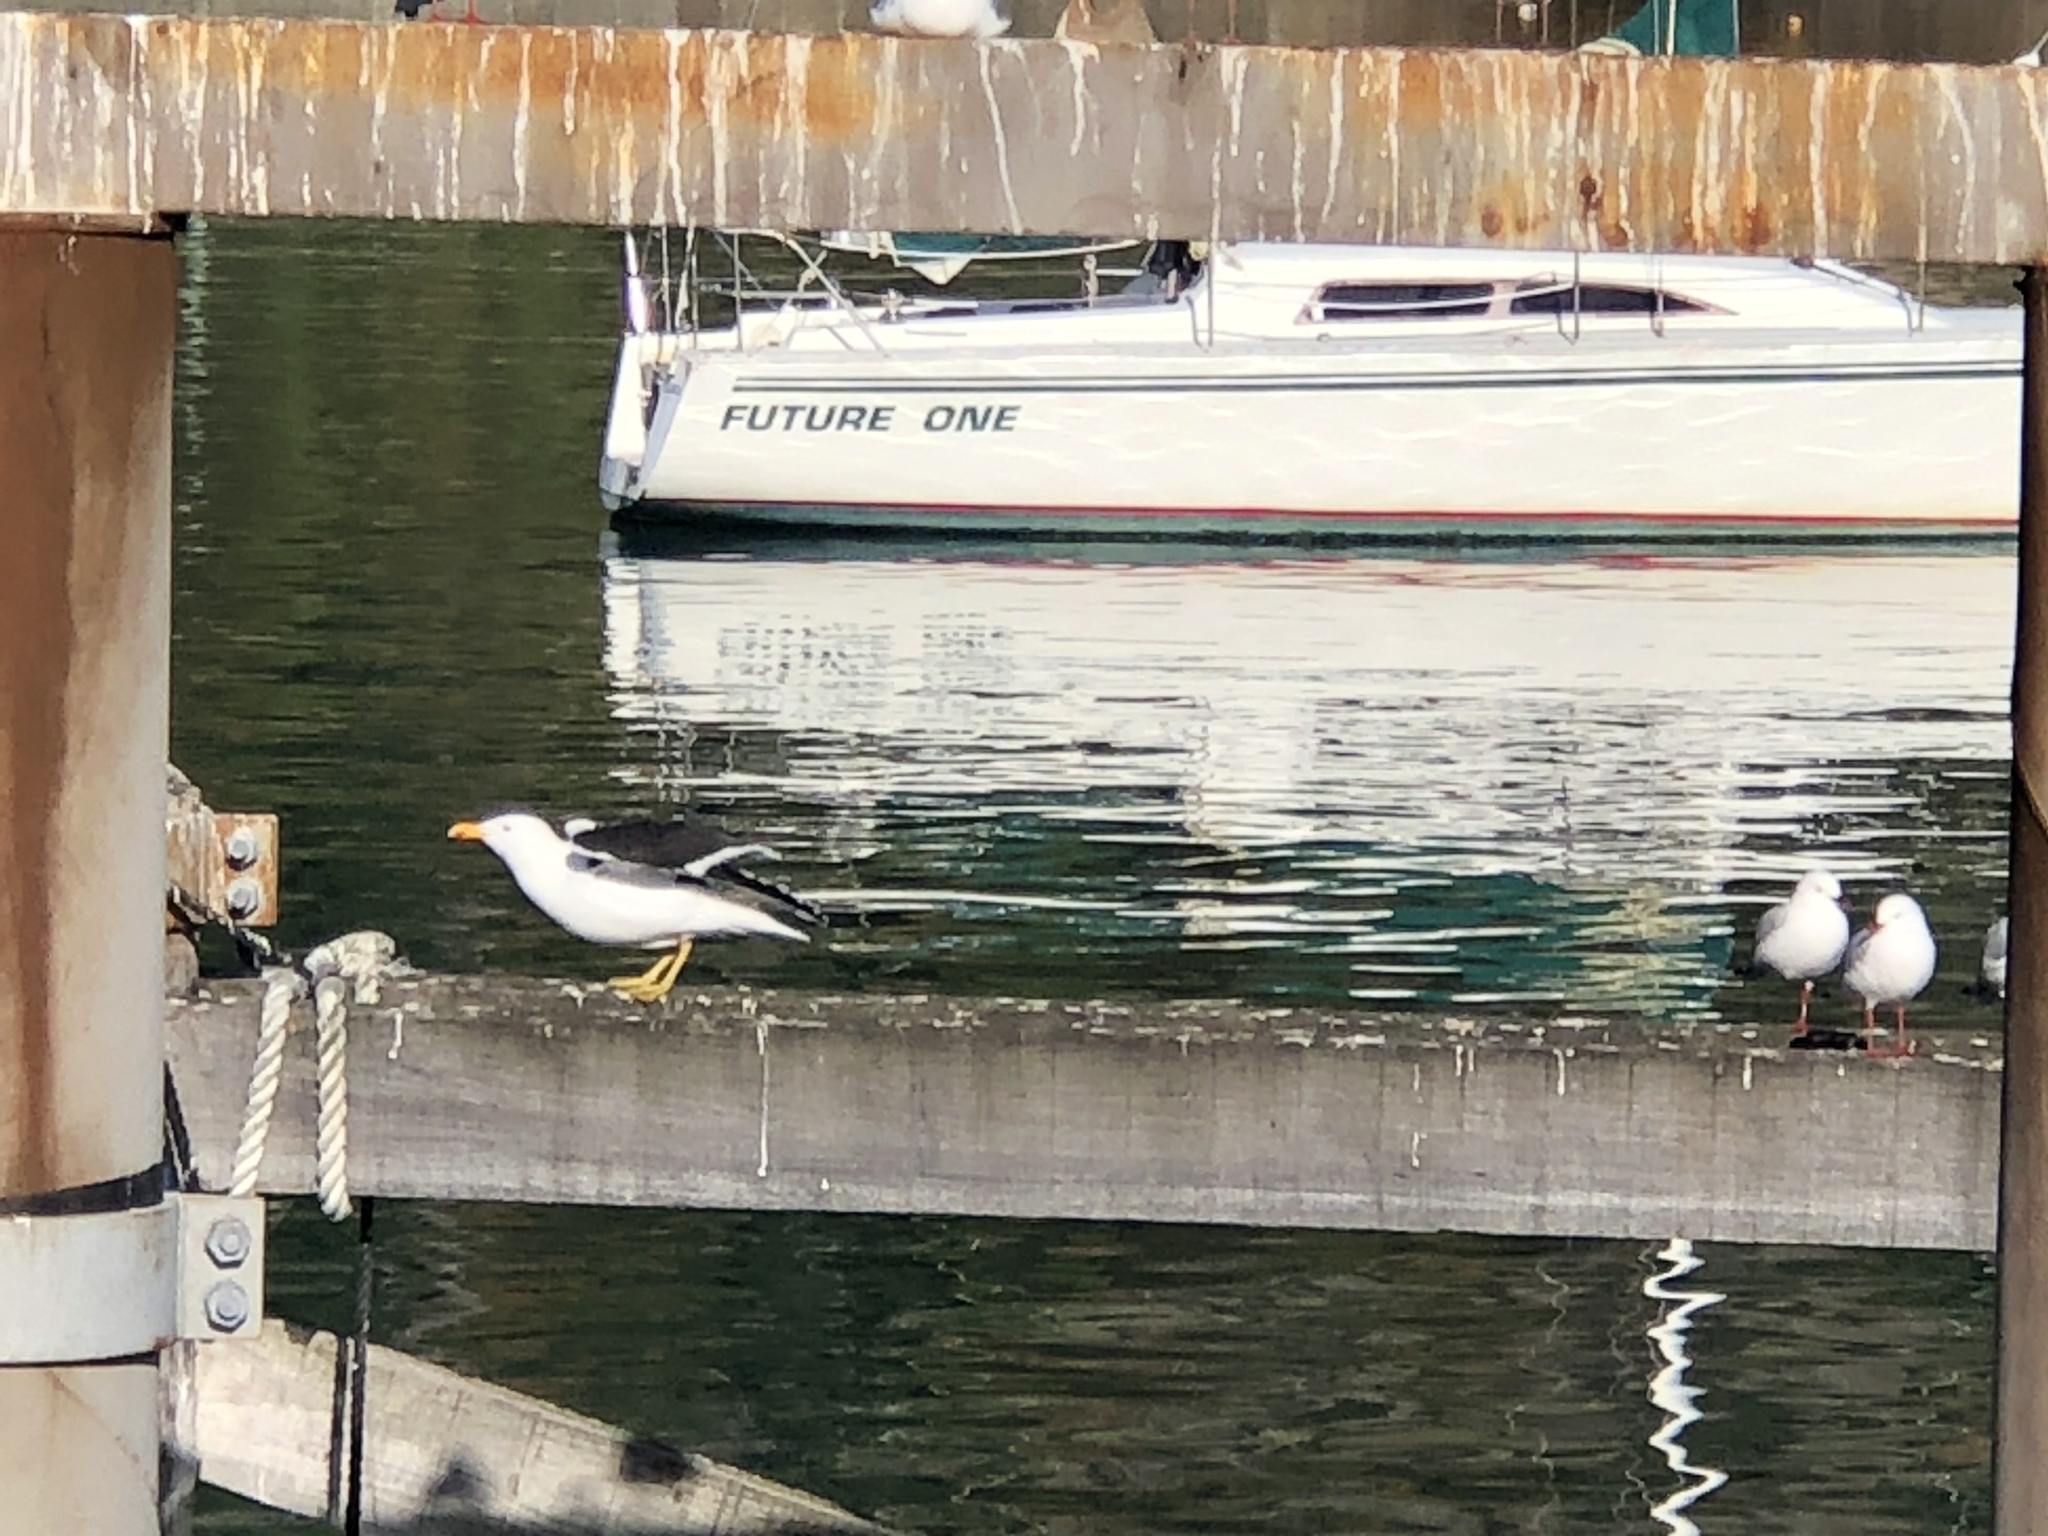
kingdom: Animalia
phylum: Chordata
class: Aves
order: Charadriiformes
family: Laridae
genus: Larus
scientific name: Larus dominicanus
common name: Kelp gull
